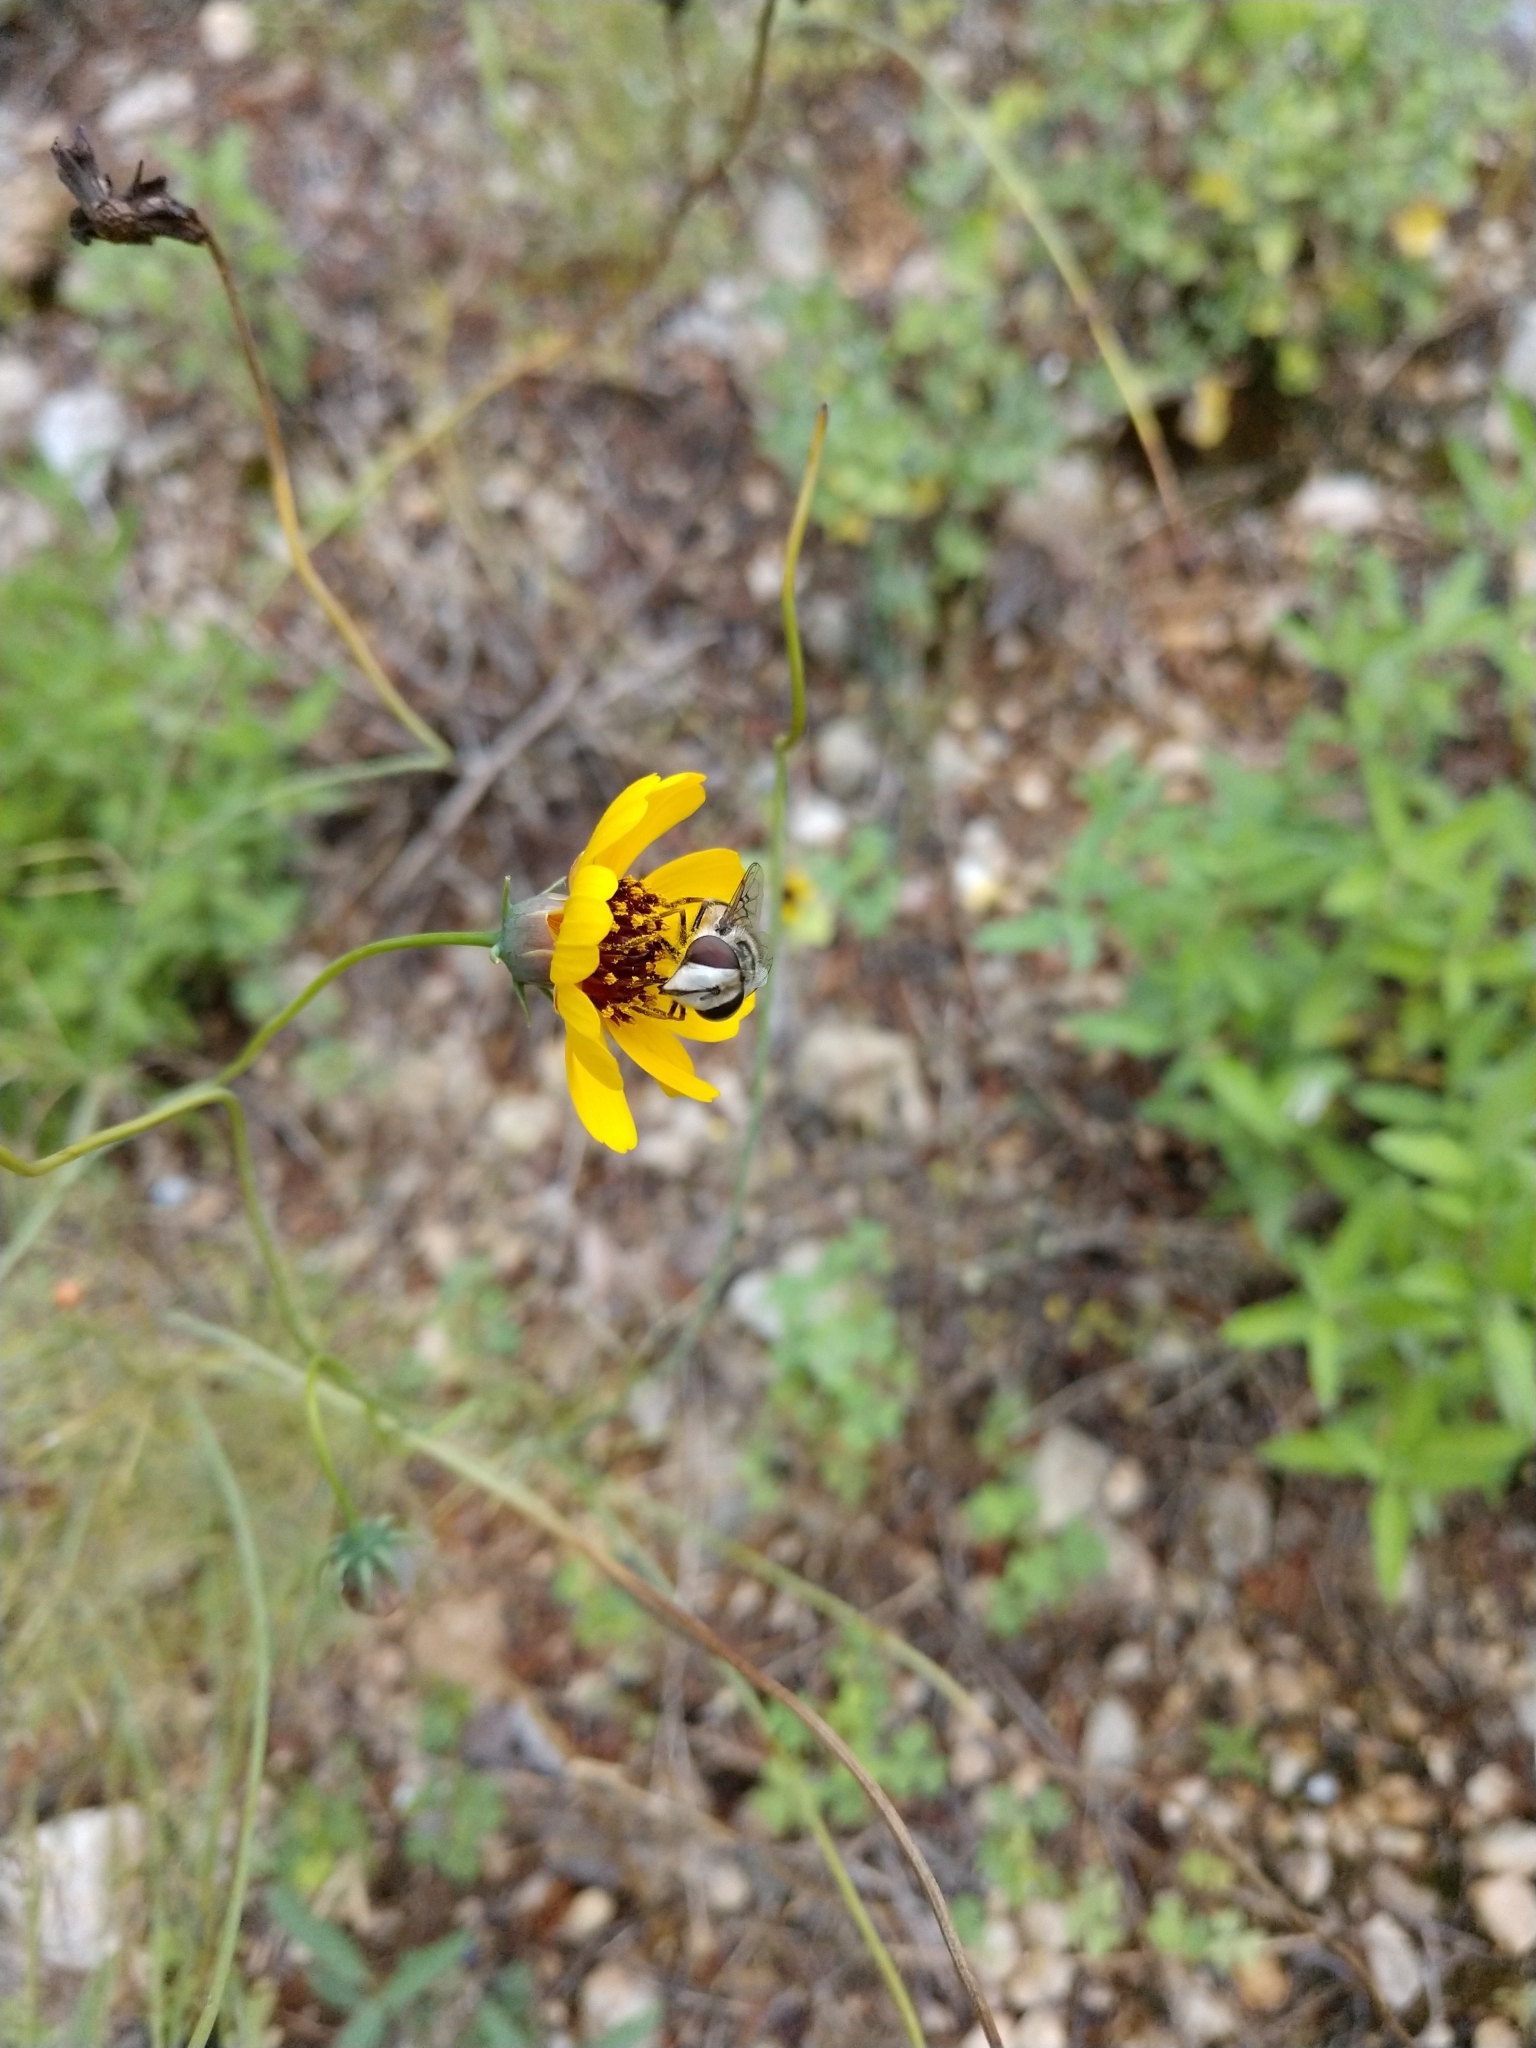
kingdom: Animalia
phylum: Arthropoda
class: Insecta
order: Diptera
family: Syrphidae
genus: Copestylum
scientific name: Copestylum avidum
